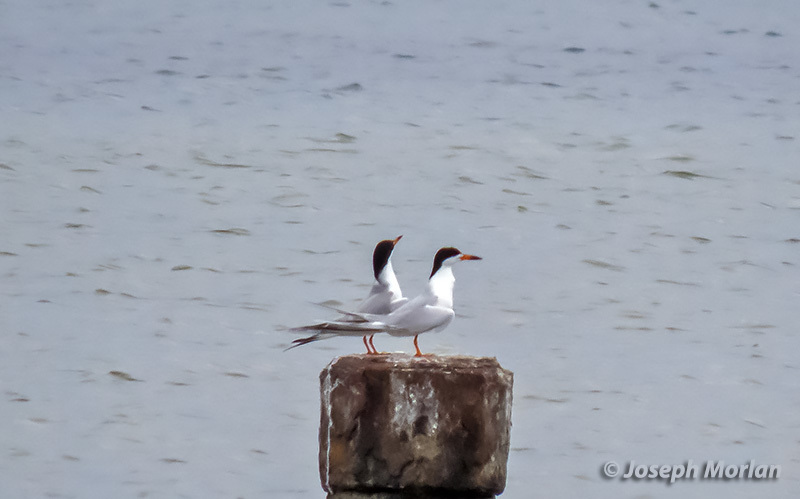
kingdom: Animalia
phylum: Chordata
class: Aves
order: Charadriiformes
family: Laridae
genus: Sterna
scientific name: Sterna forsteri
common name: Forster's tern
